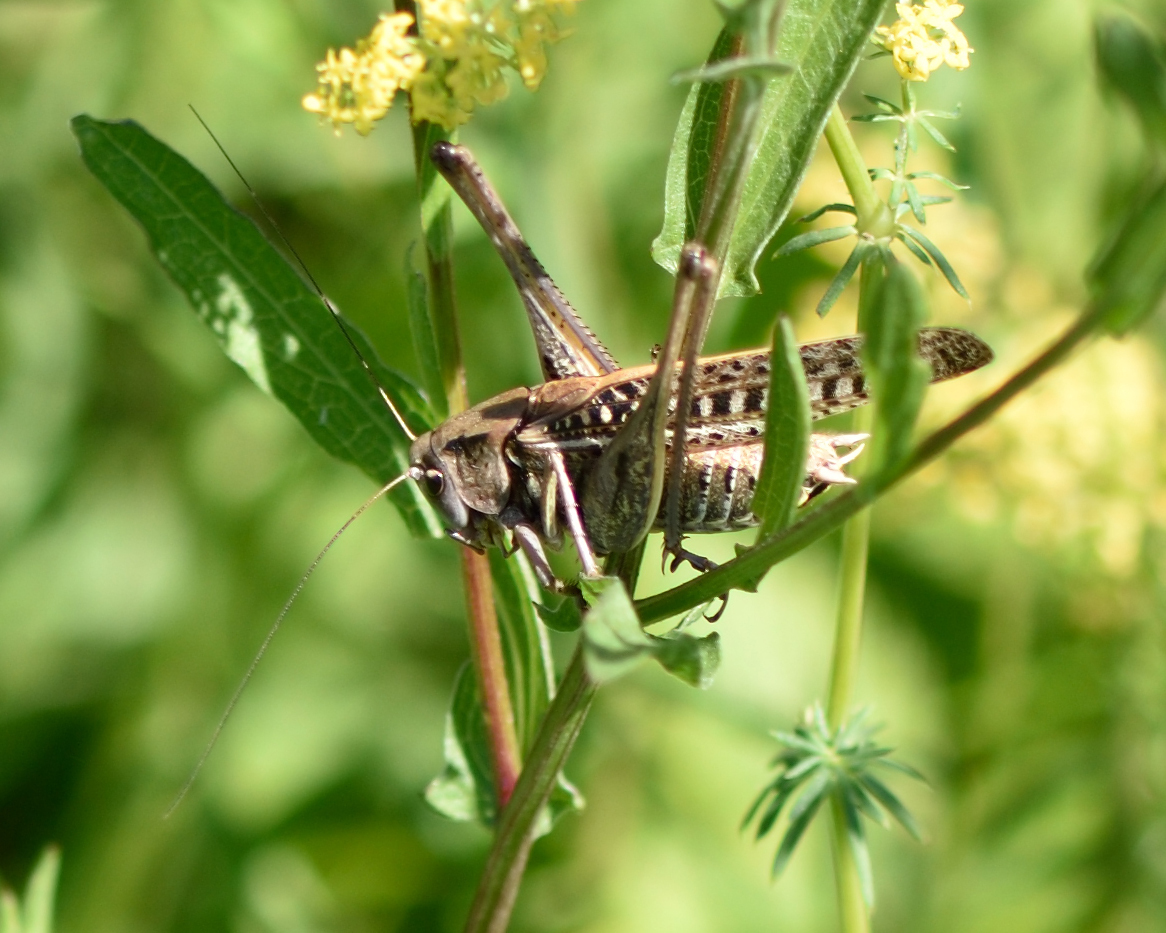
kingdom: Animalia
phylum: Arthropoda
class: Insecta
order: Orthoptera
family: Tettigoniidae
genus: Decticus
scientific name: Decticus verrucivorus
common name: Wart-biter
